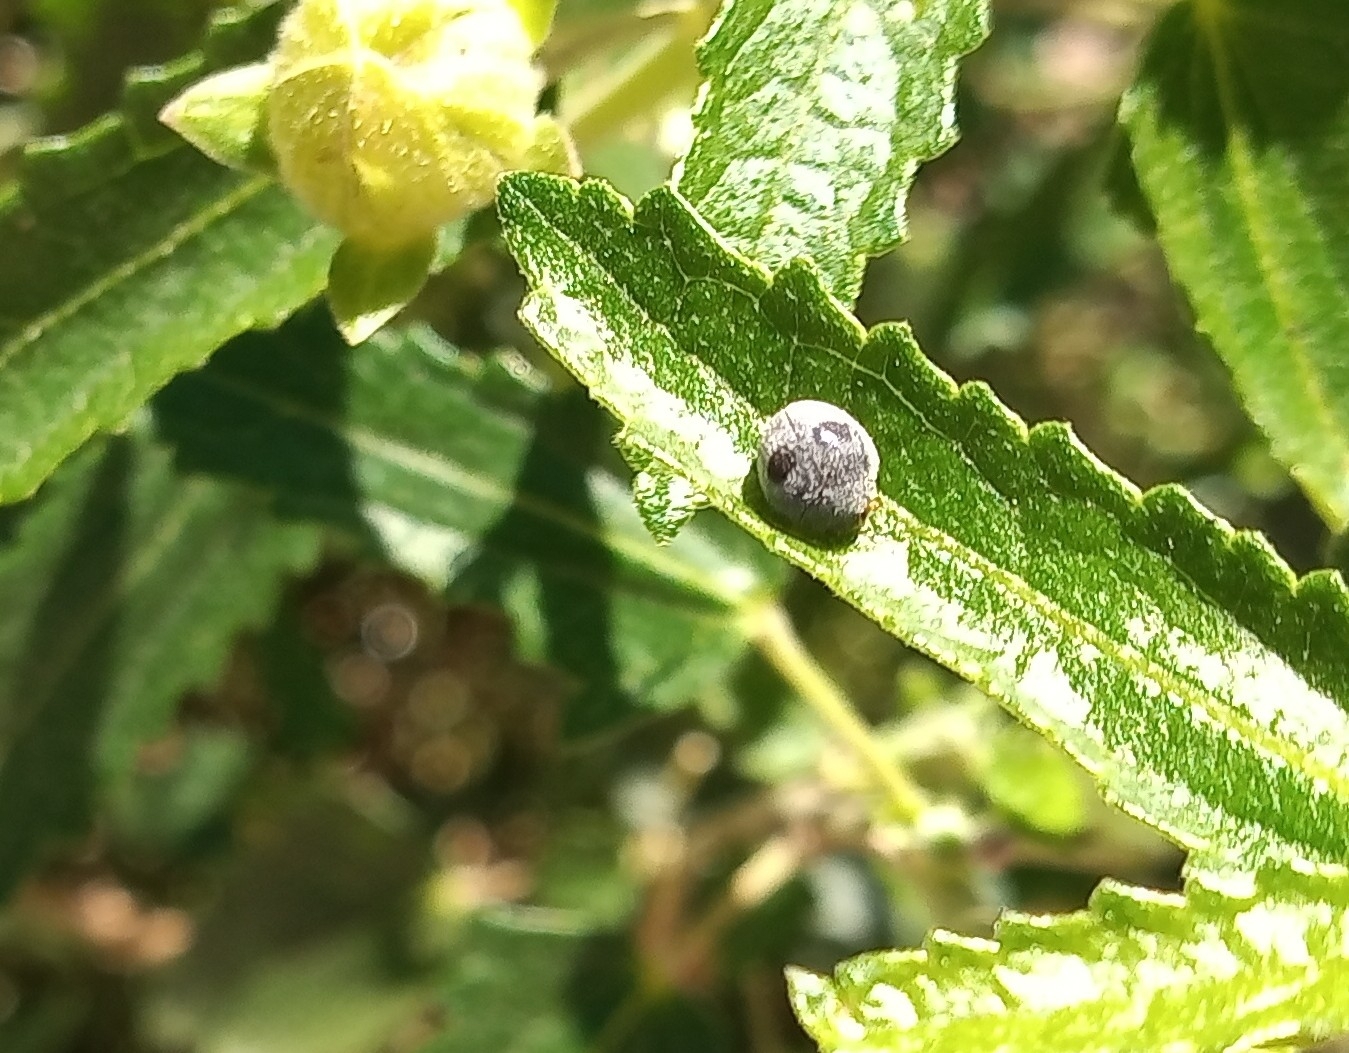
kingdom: Animalia
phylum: Arthropoda
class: Insecta
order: Coleoptera
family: Coccinellidae
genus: Azya
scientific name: Azya luteipes
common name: Ladybird beetle
